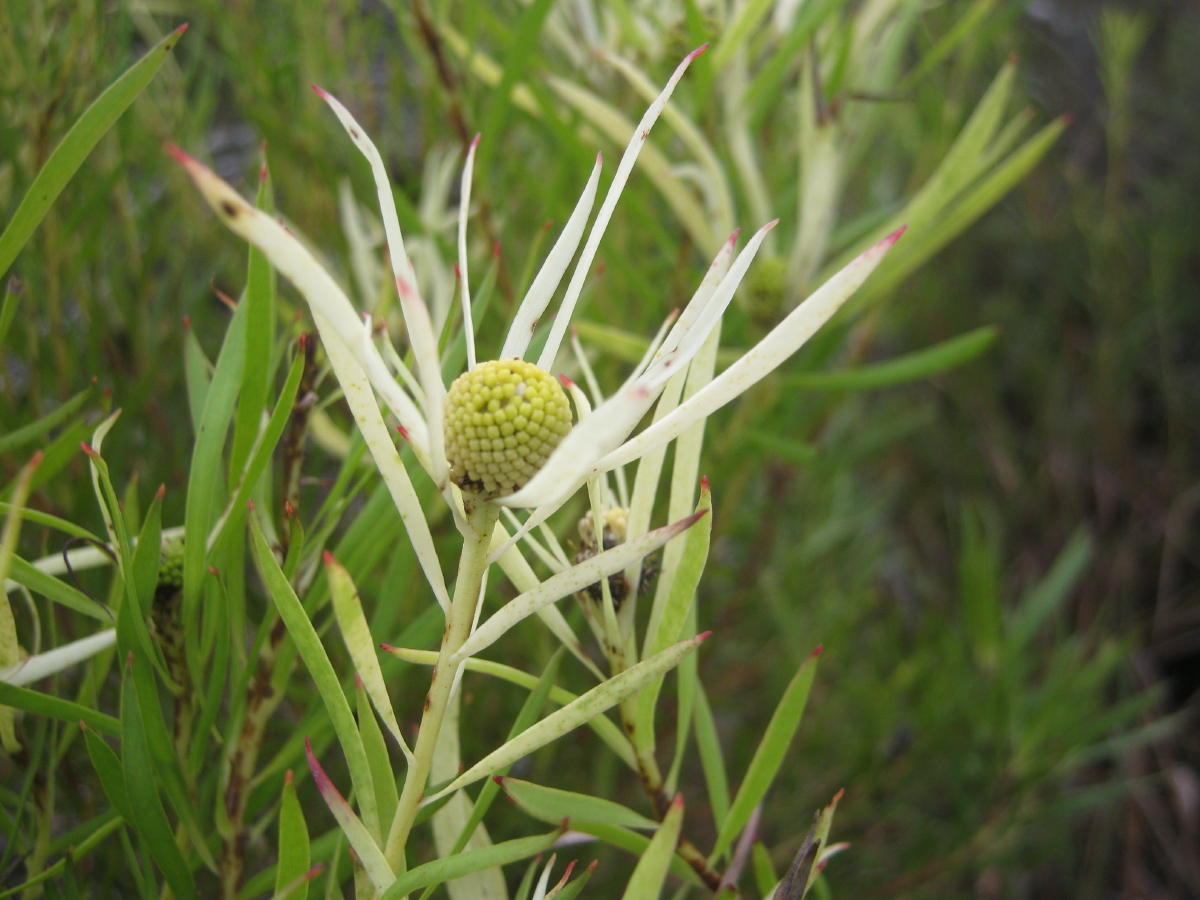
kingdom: Plantae
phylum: Tracheophyta
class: Magnoliopsida
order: Proteales
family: Proteaceae
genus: Leucadendron
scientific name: Leucadendron salignum
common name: Common sunshine conebush
